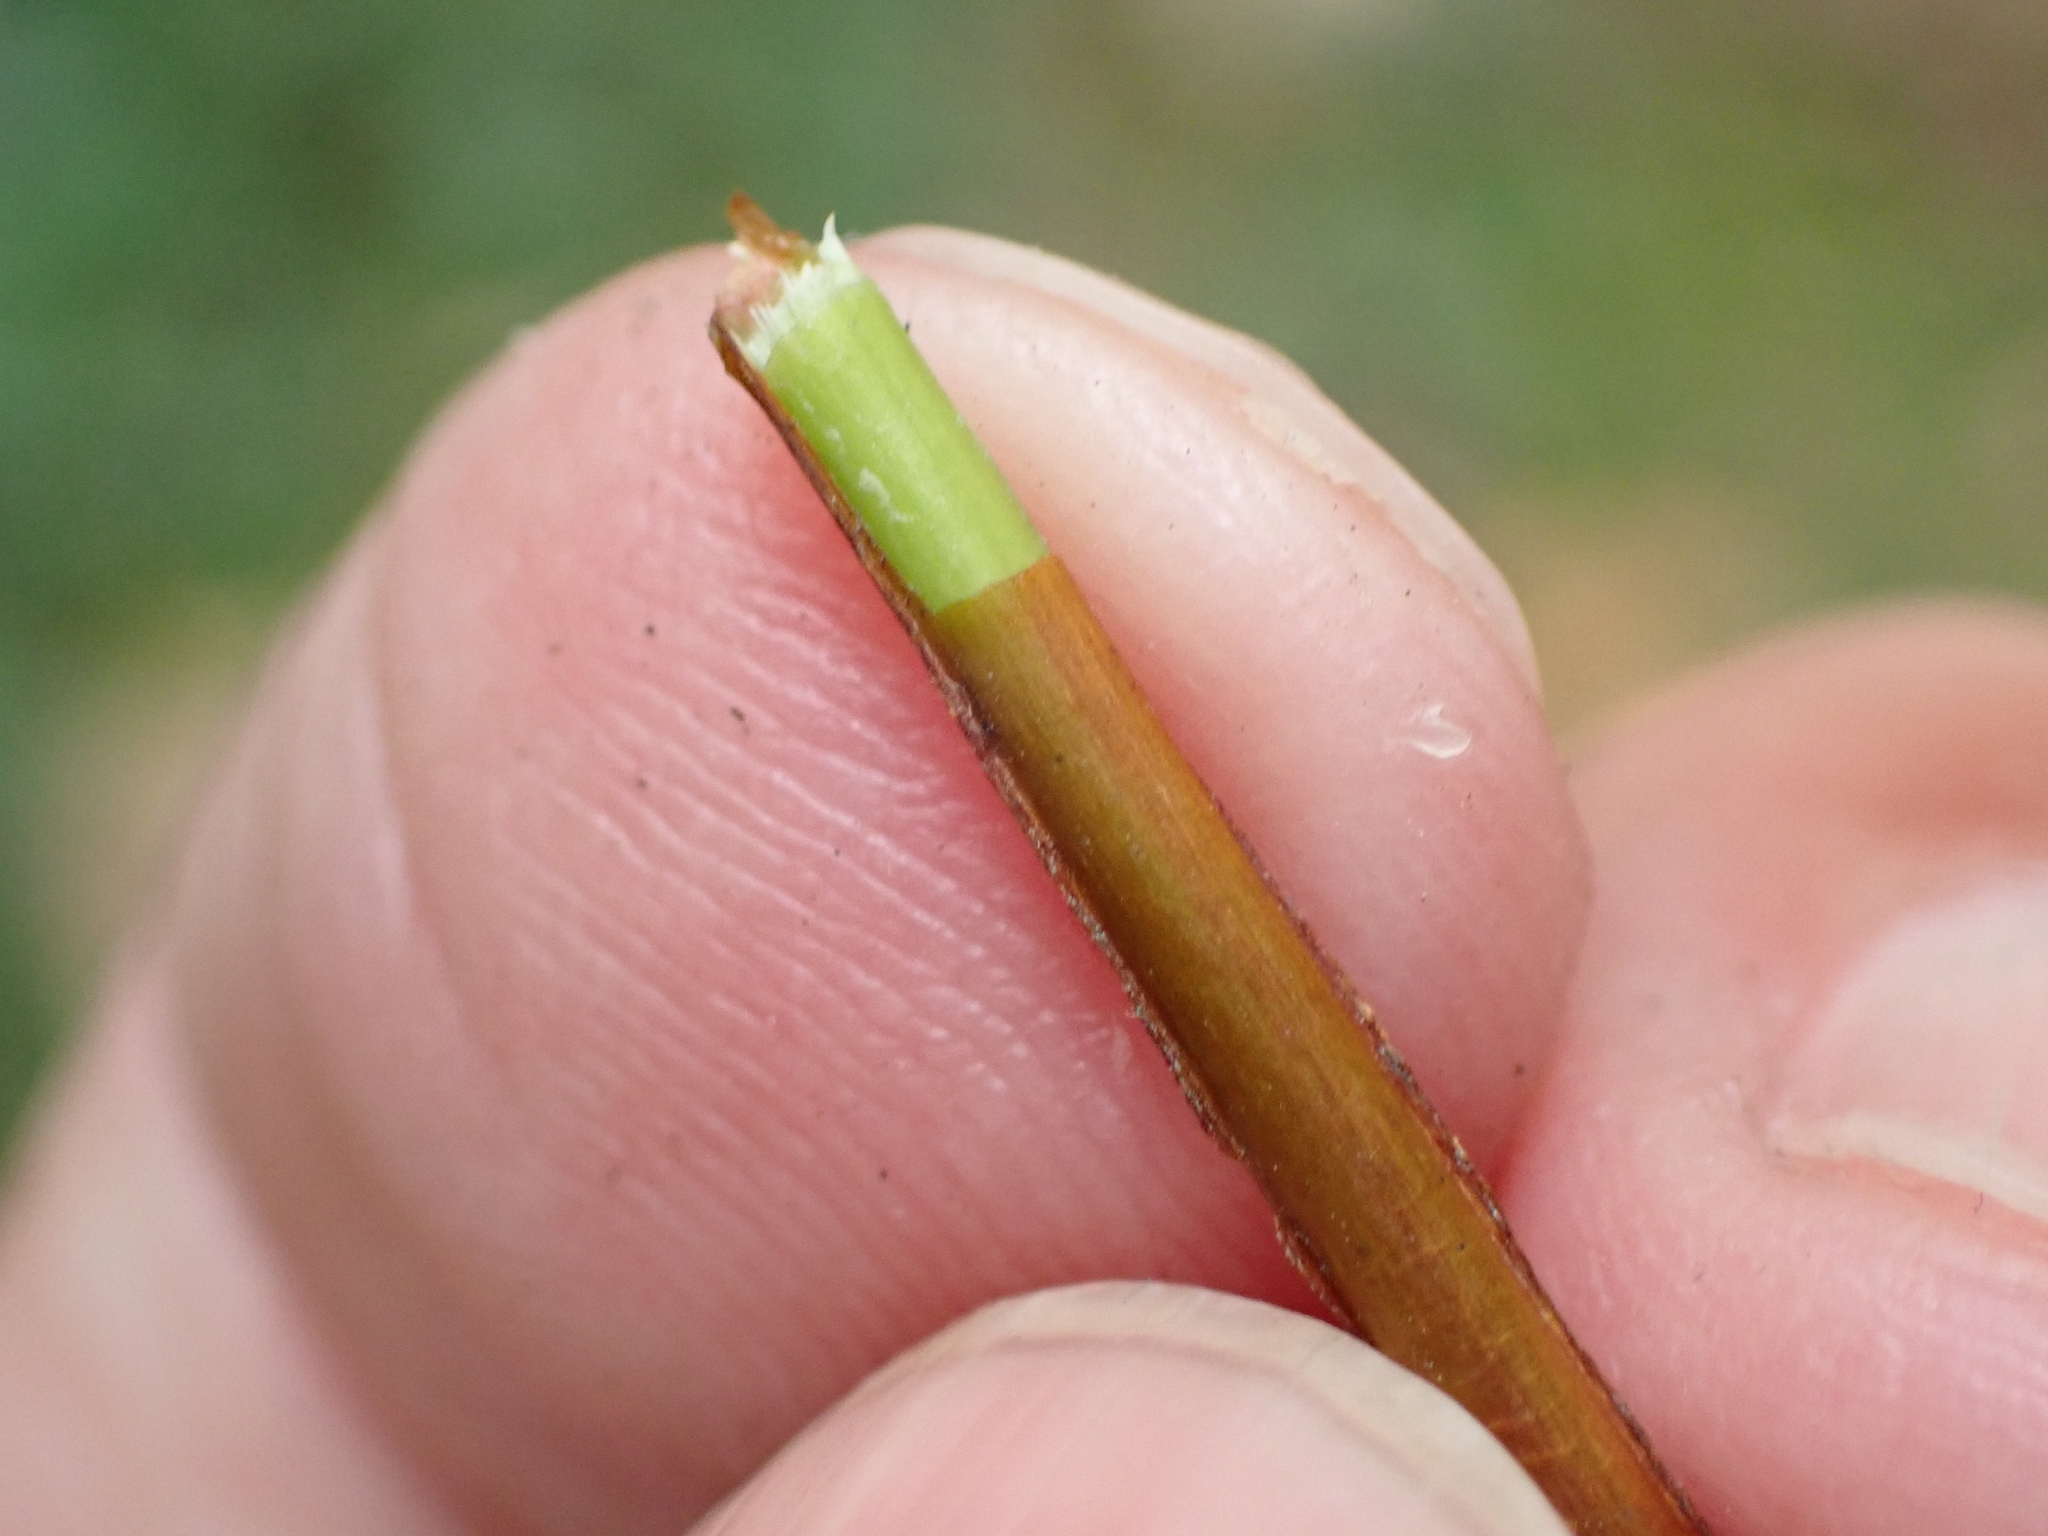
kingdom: Plantae
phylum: Tracheophyta
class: Magnoliopsida
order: Malpighiales
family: Hypericaceae
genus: Hypericum
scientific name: Hypericum androsaemum
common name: Sweet-amber
